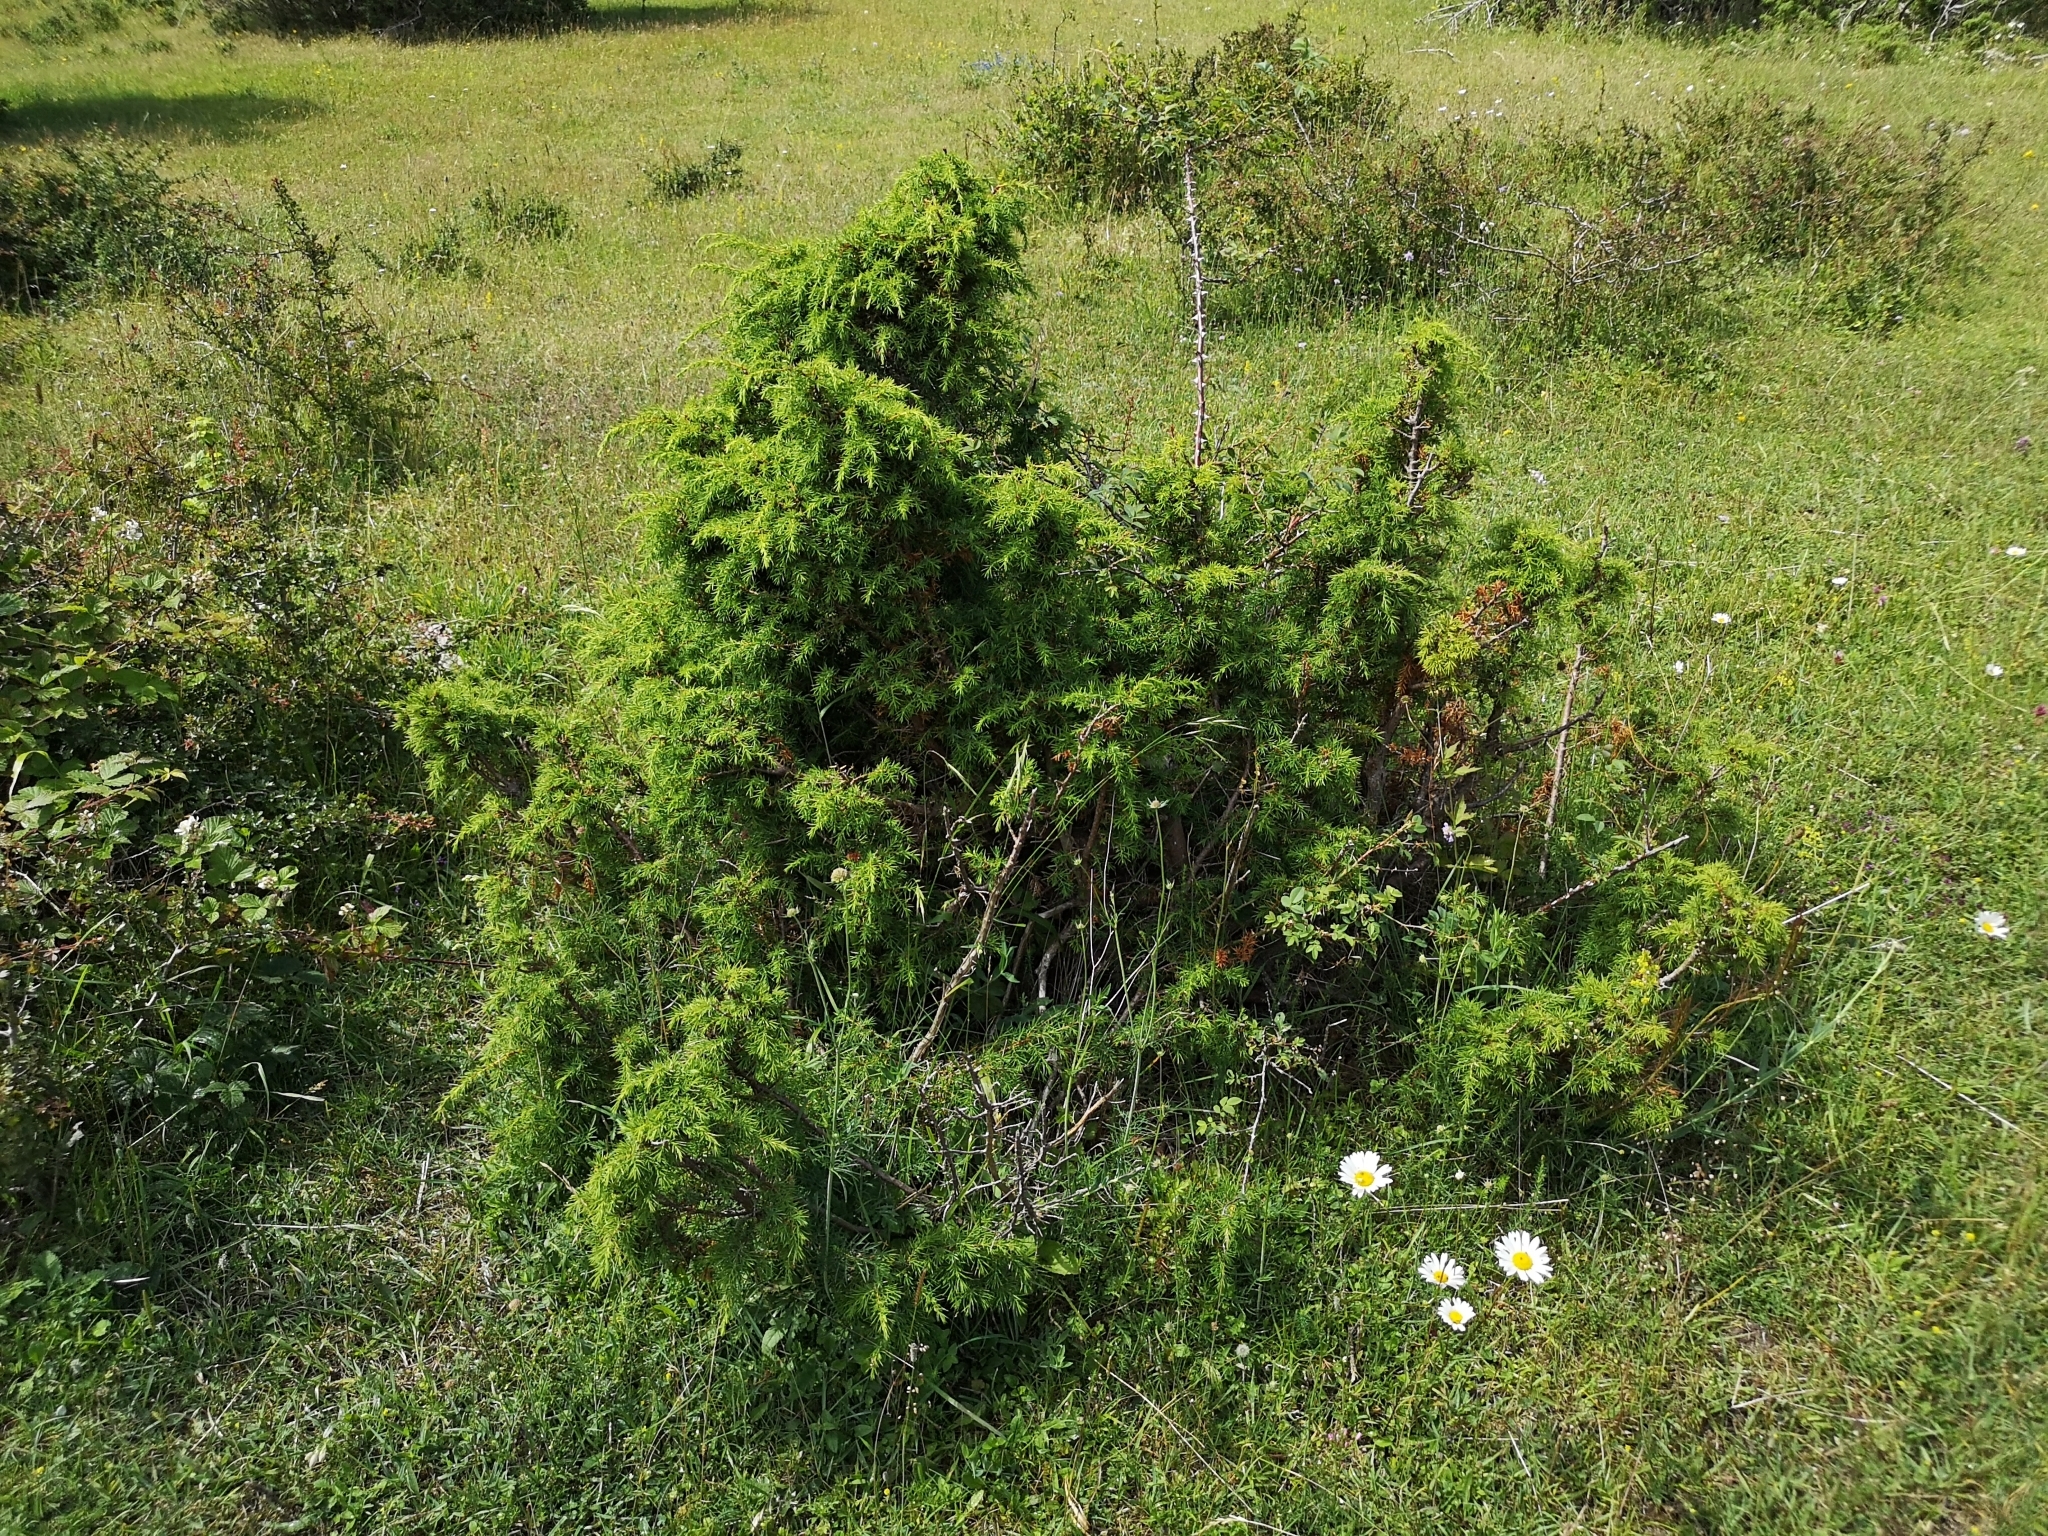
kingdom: Plantae
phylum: Tracheophyta
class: Pinopsida
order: Pinales
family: Cupressaceae
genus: Juniperus
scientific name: Juniperus communis
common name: Common juniper
